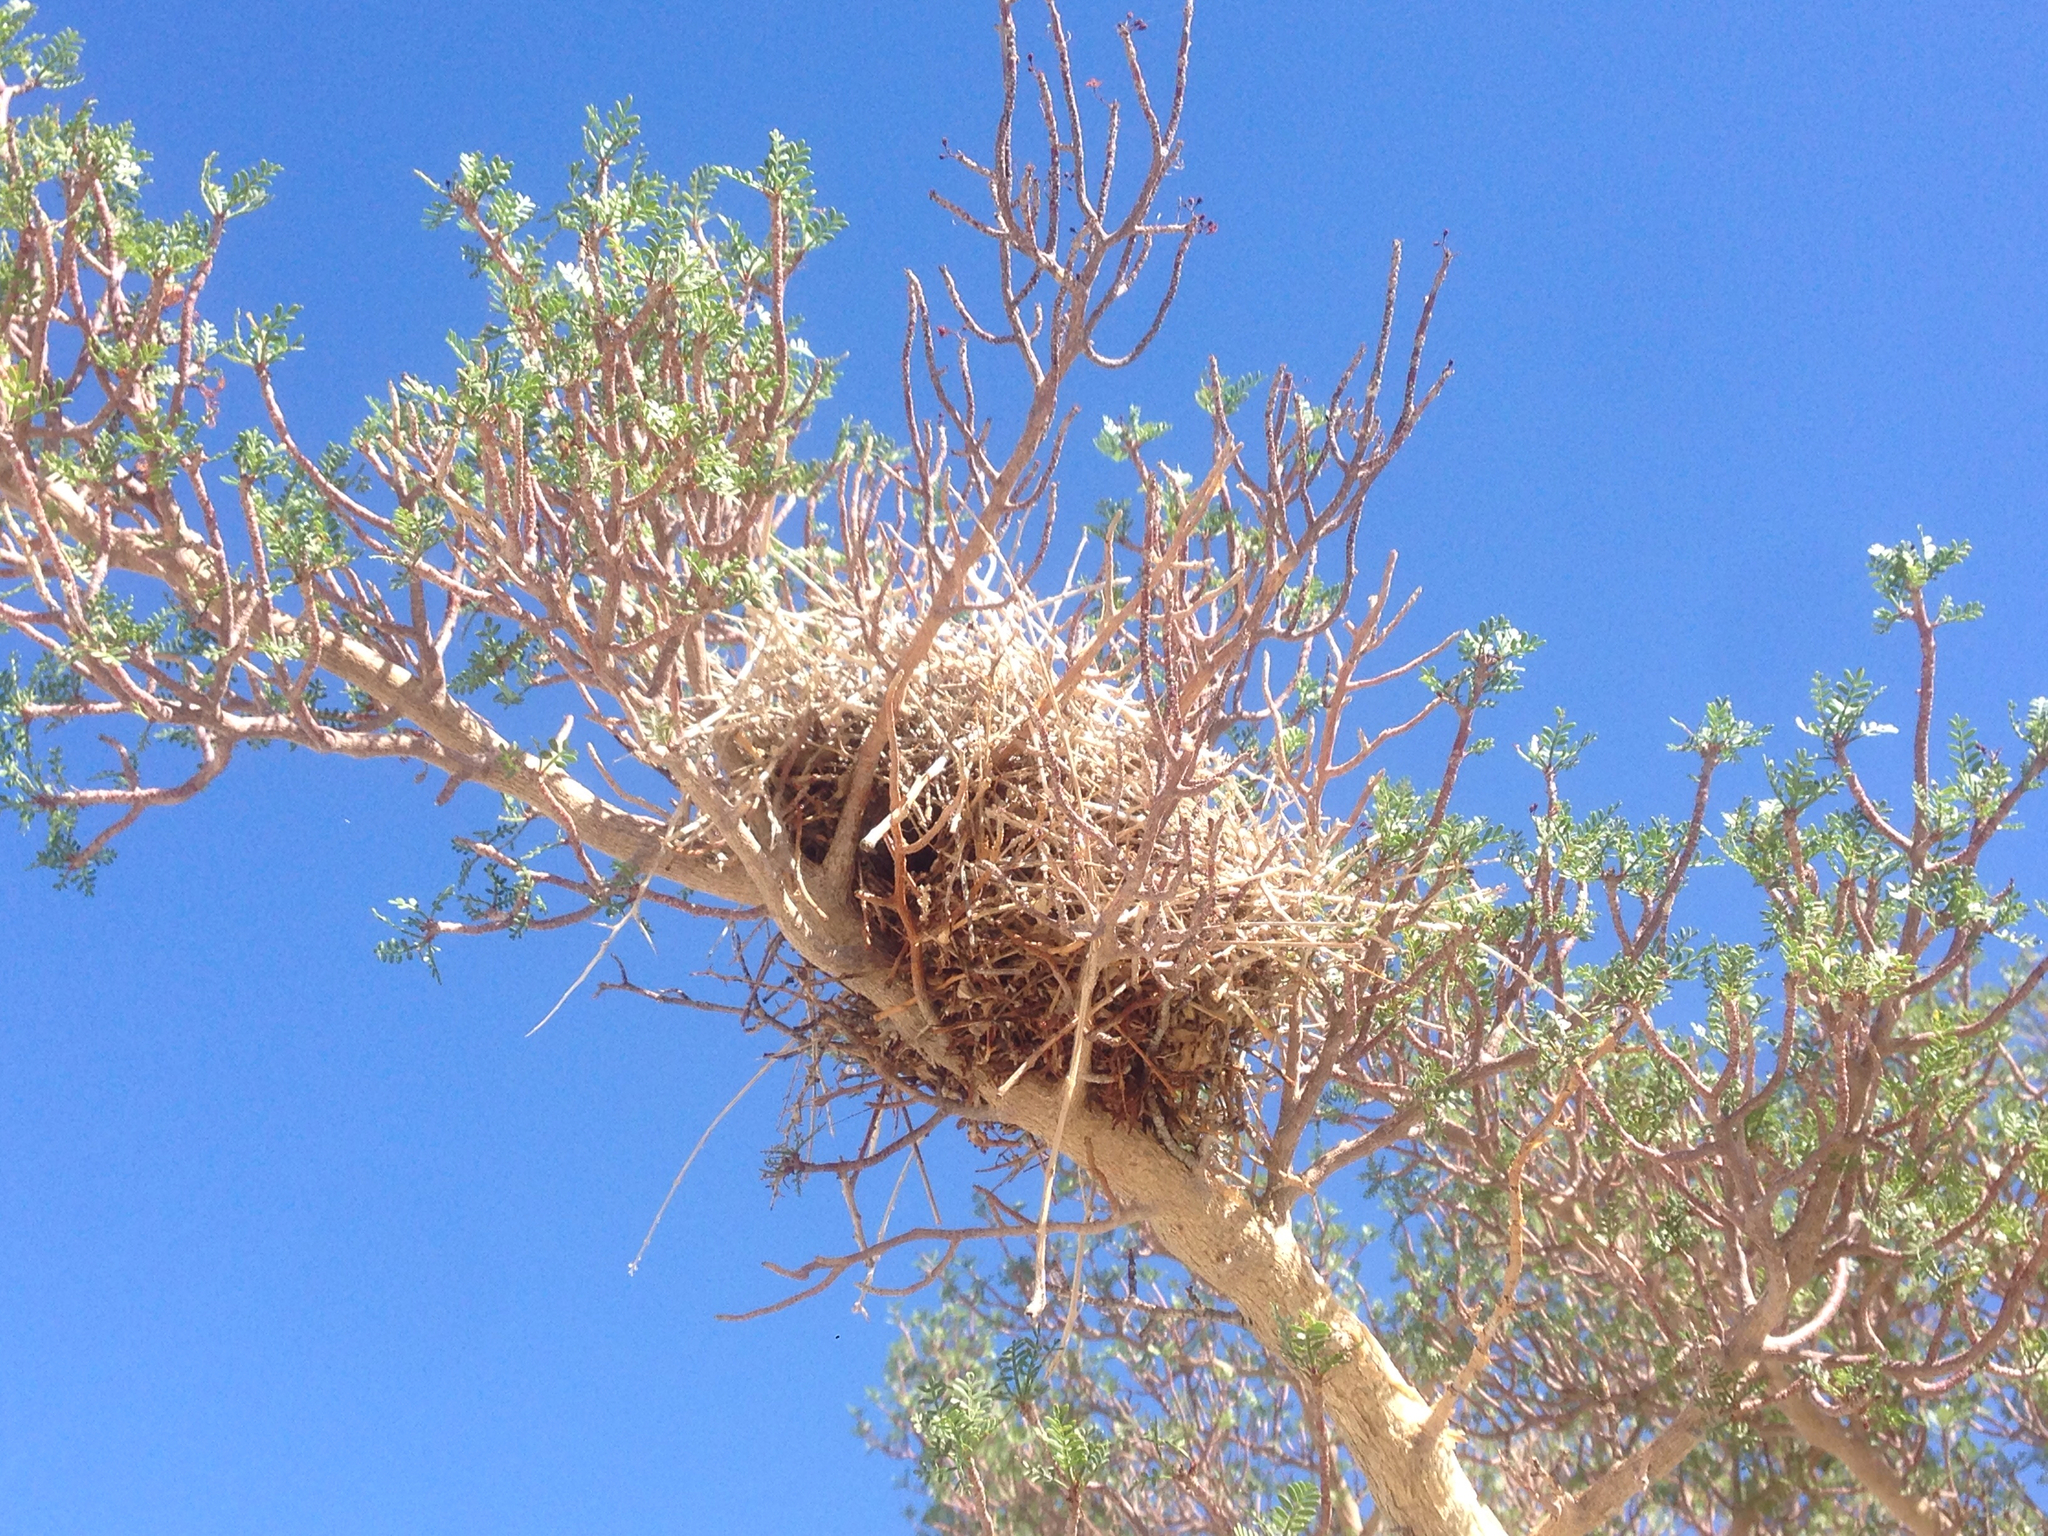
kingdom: Animalia
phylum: Chordata
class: Aves
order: Passeriformes
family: Remizidae
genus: Auriparus
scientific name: Auriparus flaviceps
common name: Verdin
